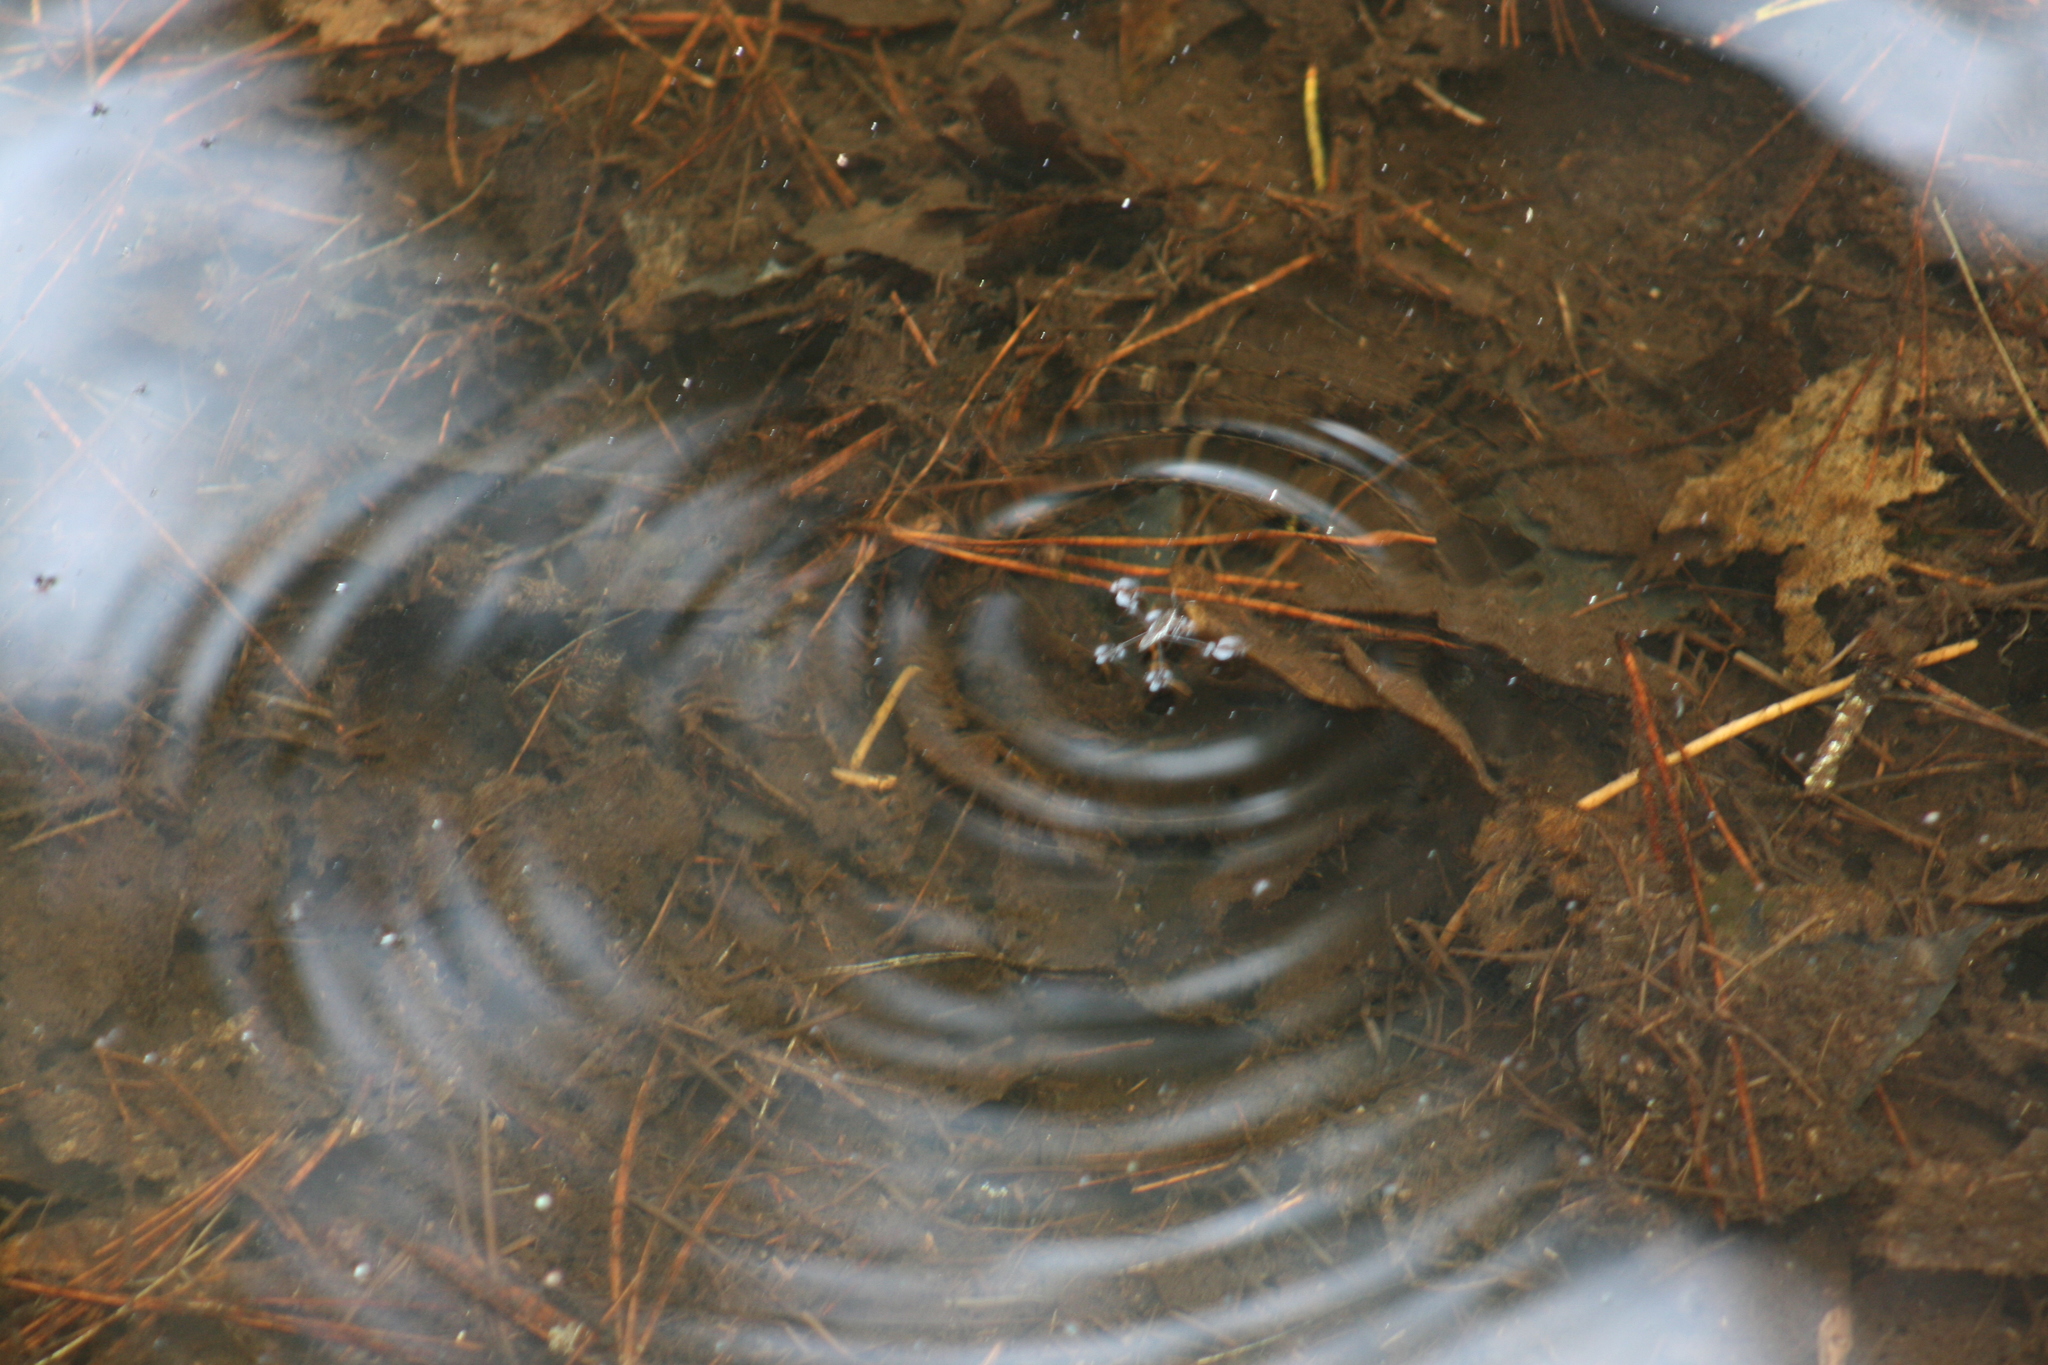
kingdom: Animalia
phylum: Arthropoda
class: Insecta
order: Hemiptera
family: Gerridae
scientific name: Gerridae
